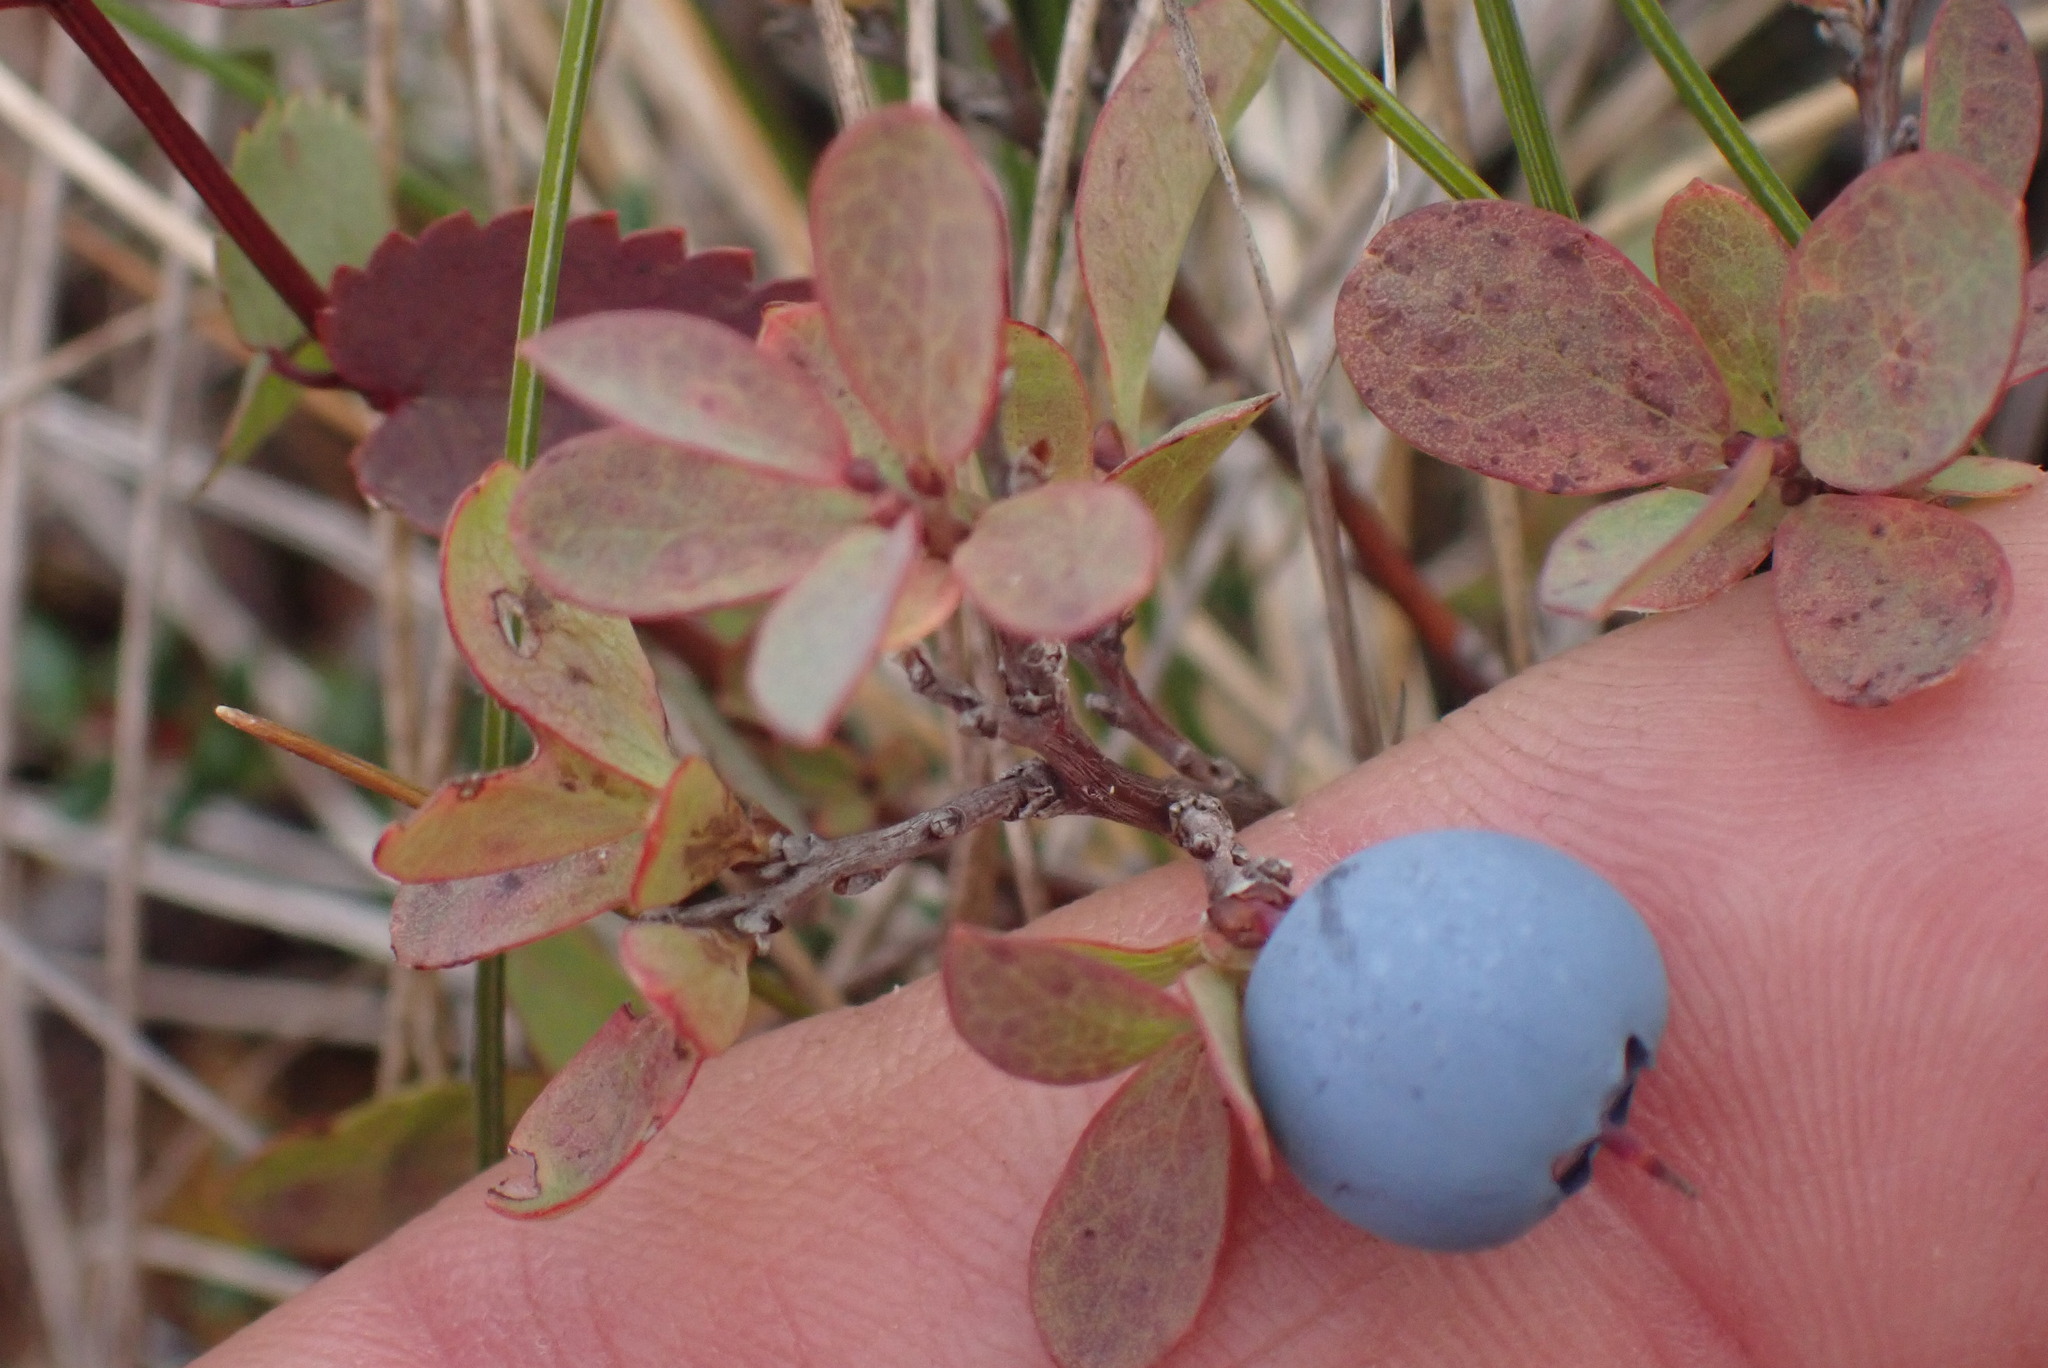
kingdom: Plantae
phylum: Tracheophyta
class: Magnoliopsida
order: Ericales
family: Ericaceae
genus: Vaccinium
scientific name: Vaccinium uliginosum
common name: Bog bilberry
